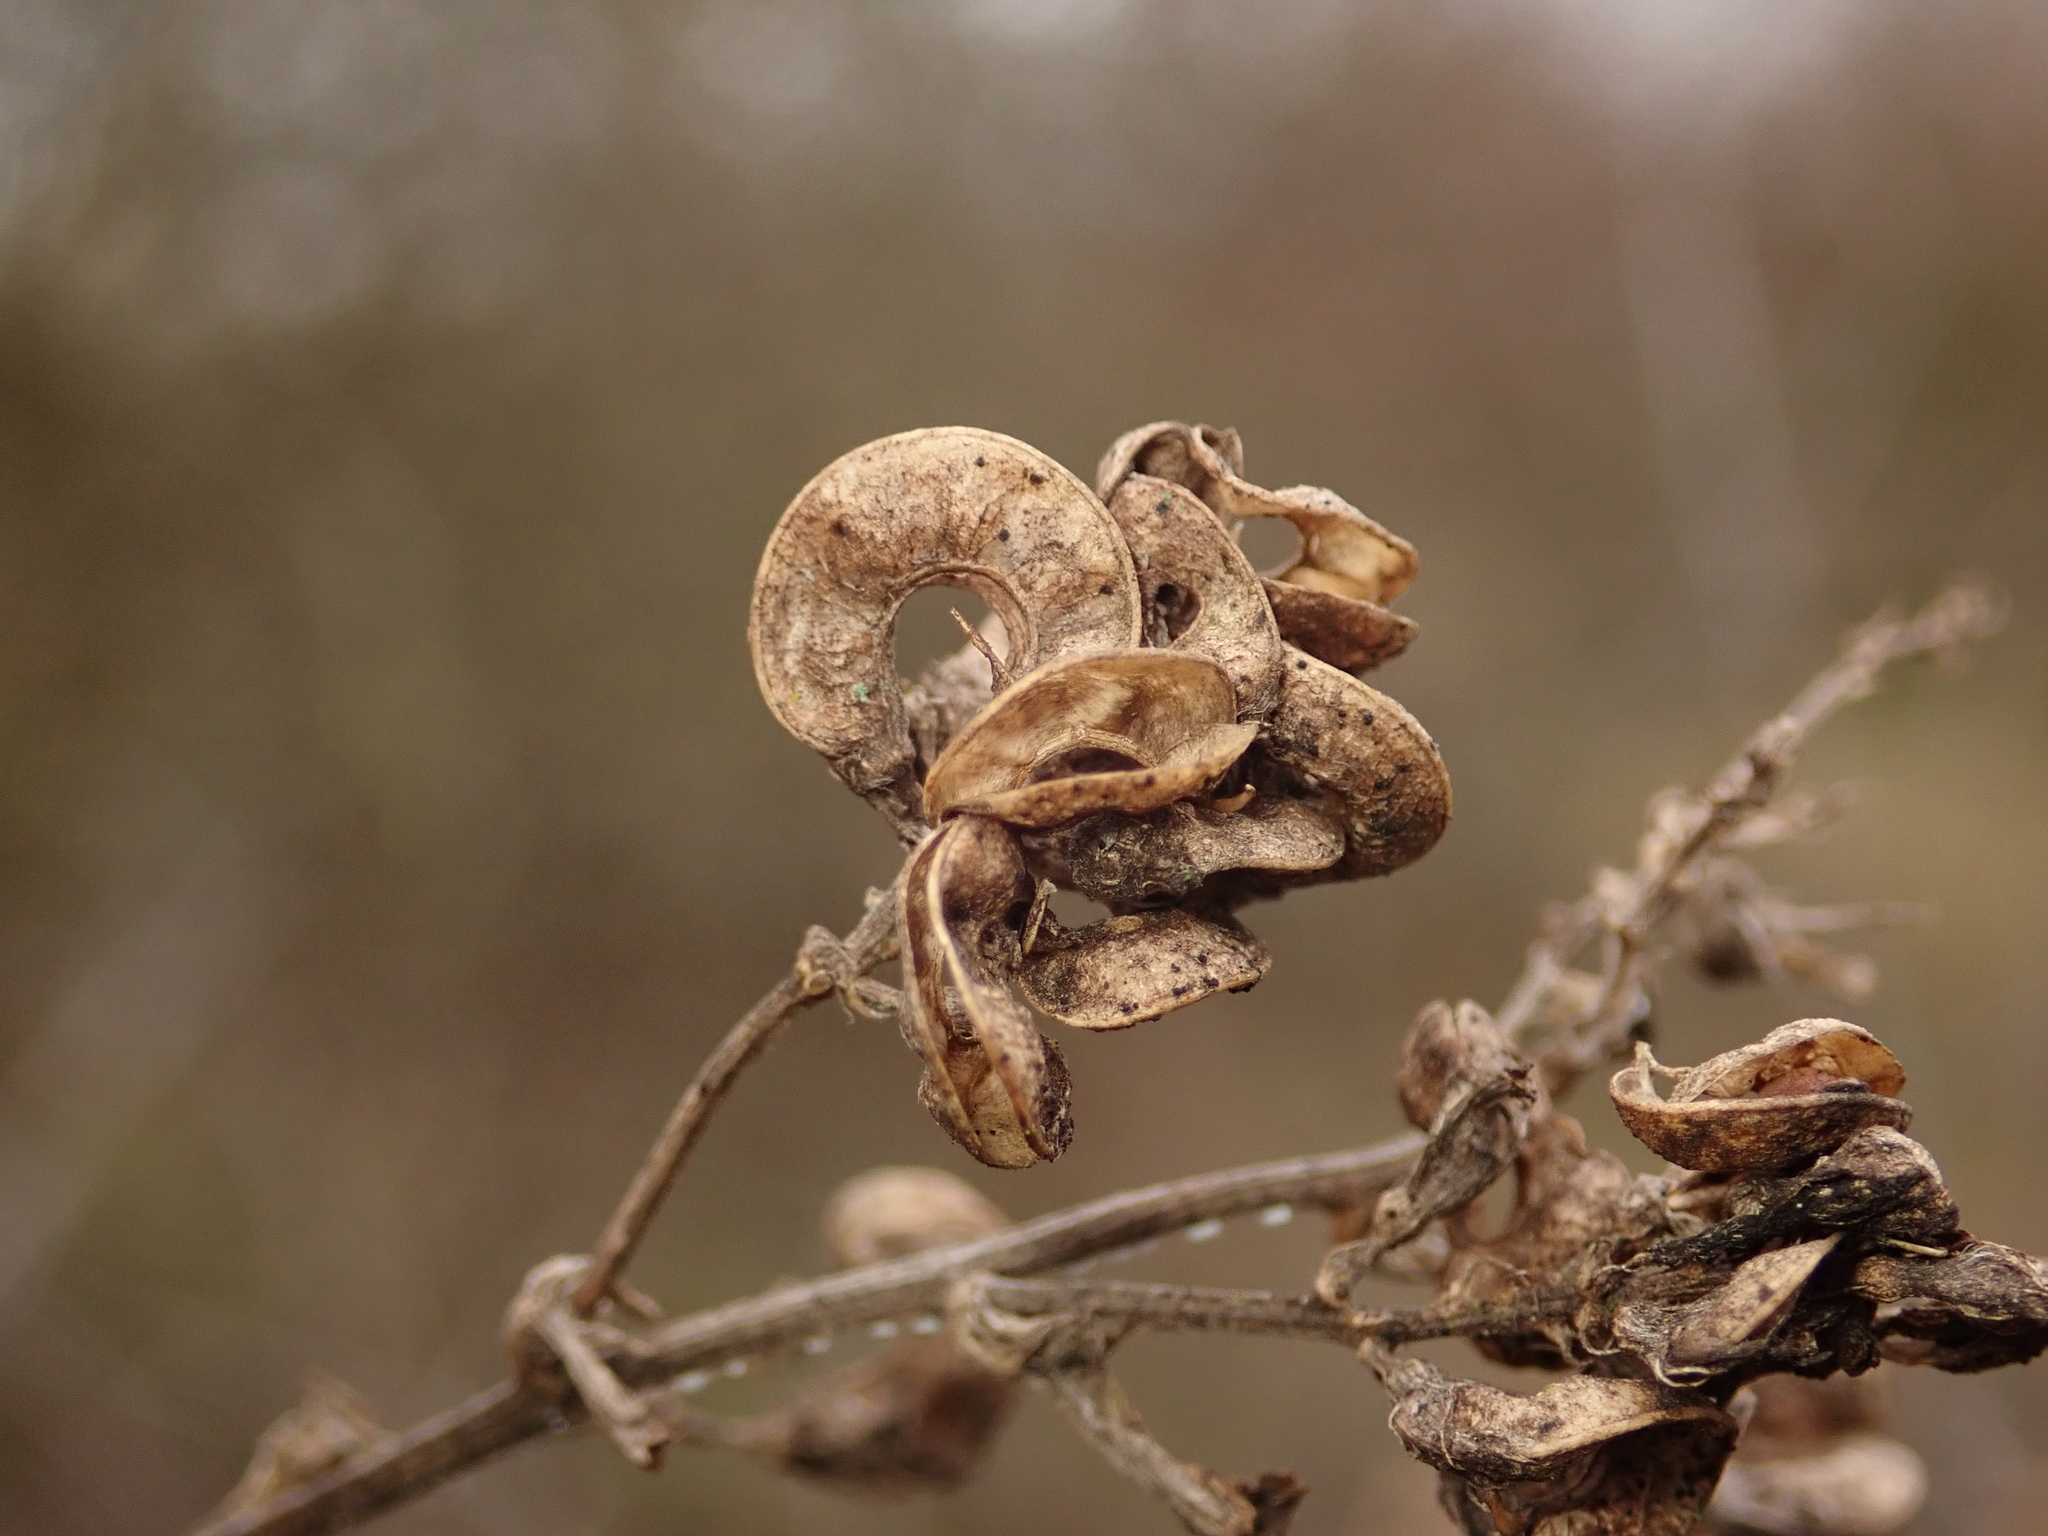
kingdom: Plantae
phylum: Tracheophyta
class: Magnoliopsida
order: Fabales
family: Fabaceae
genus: Medicago
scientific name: Medicago sativa
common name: Alfalfa
